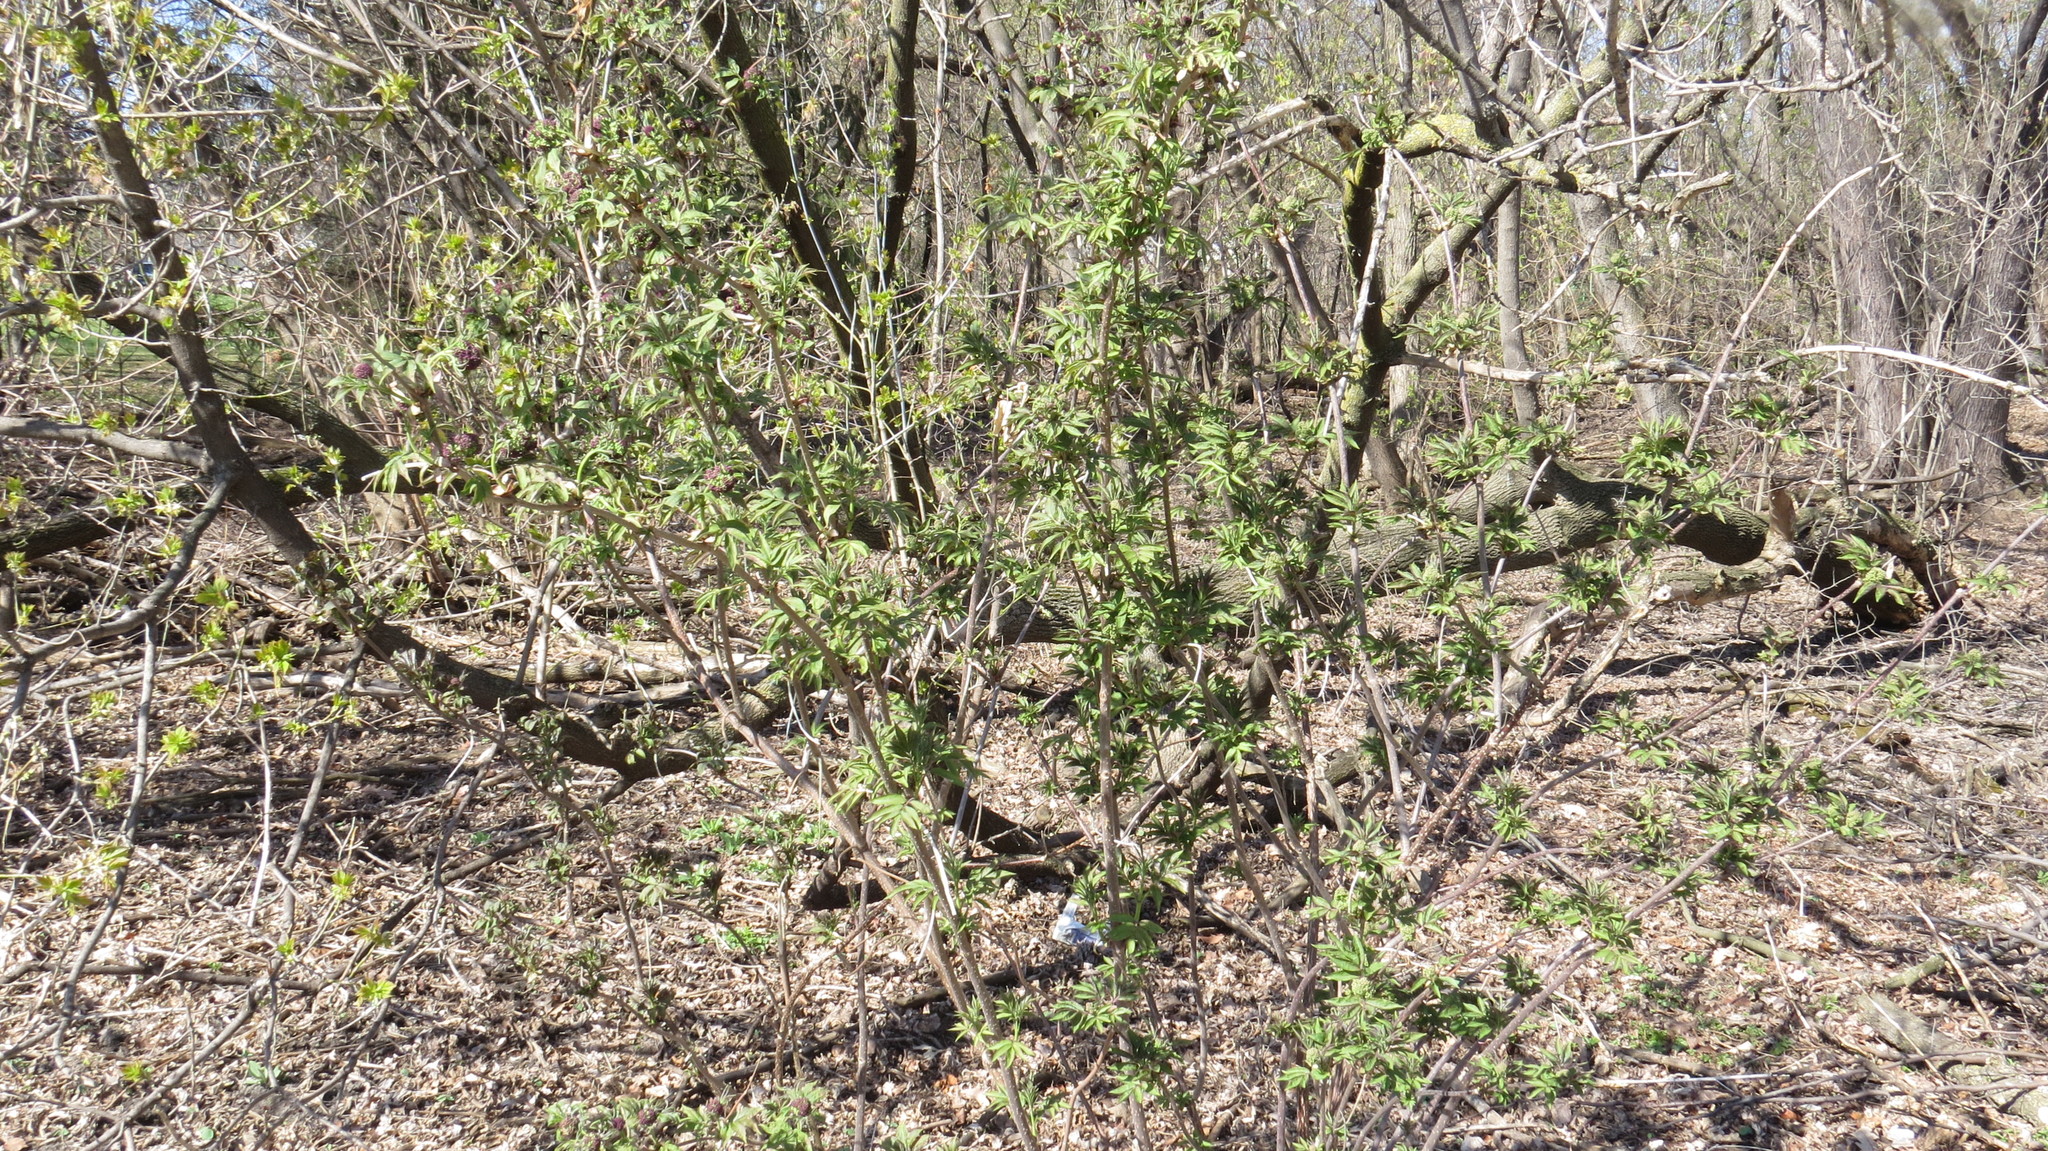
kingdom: Plantae
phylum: Tracheophyta
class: Magnoliopsida
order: Dipsacales
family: Viburnaceae
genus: Sambucus
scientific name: Sambucus racemosa
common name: Red-berried elder
